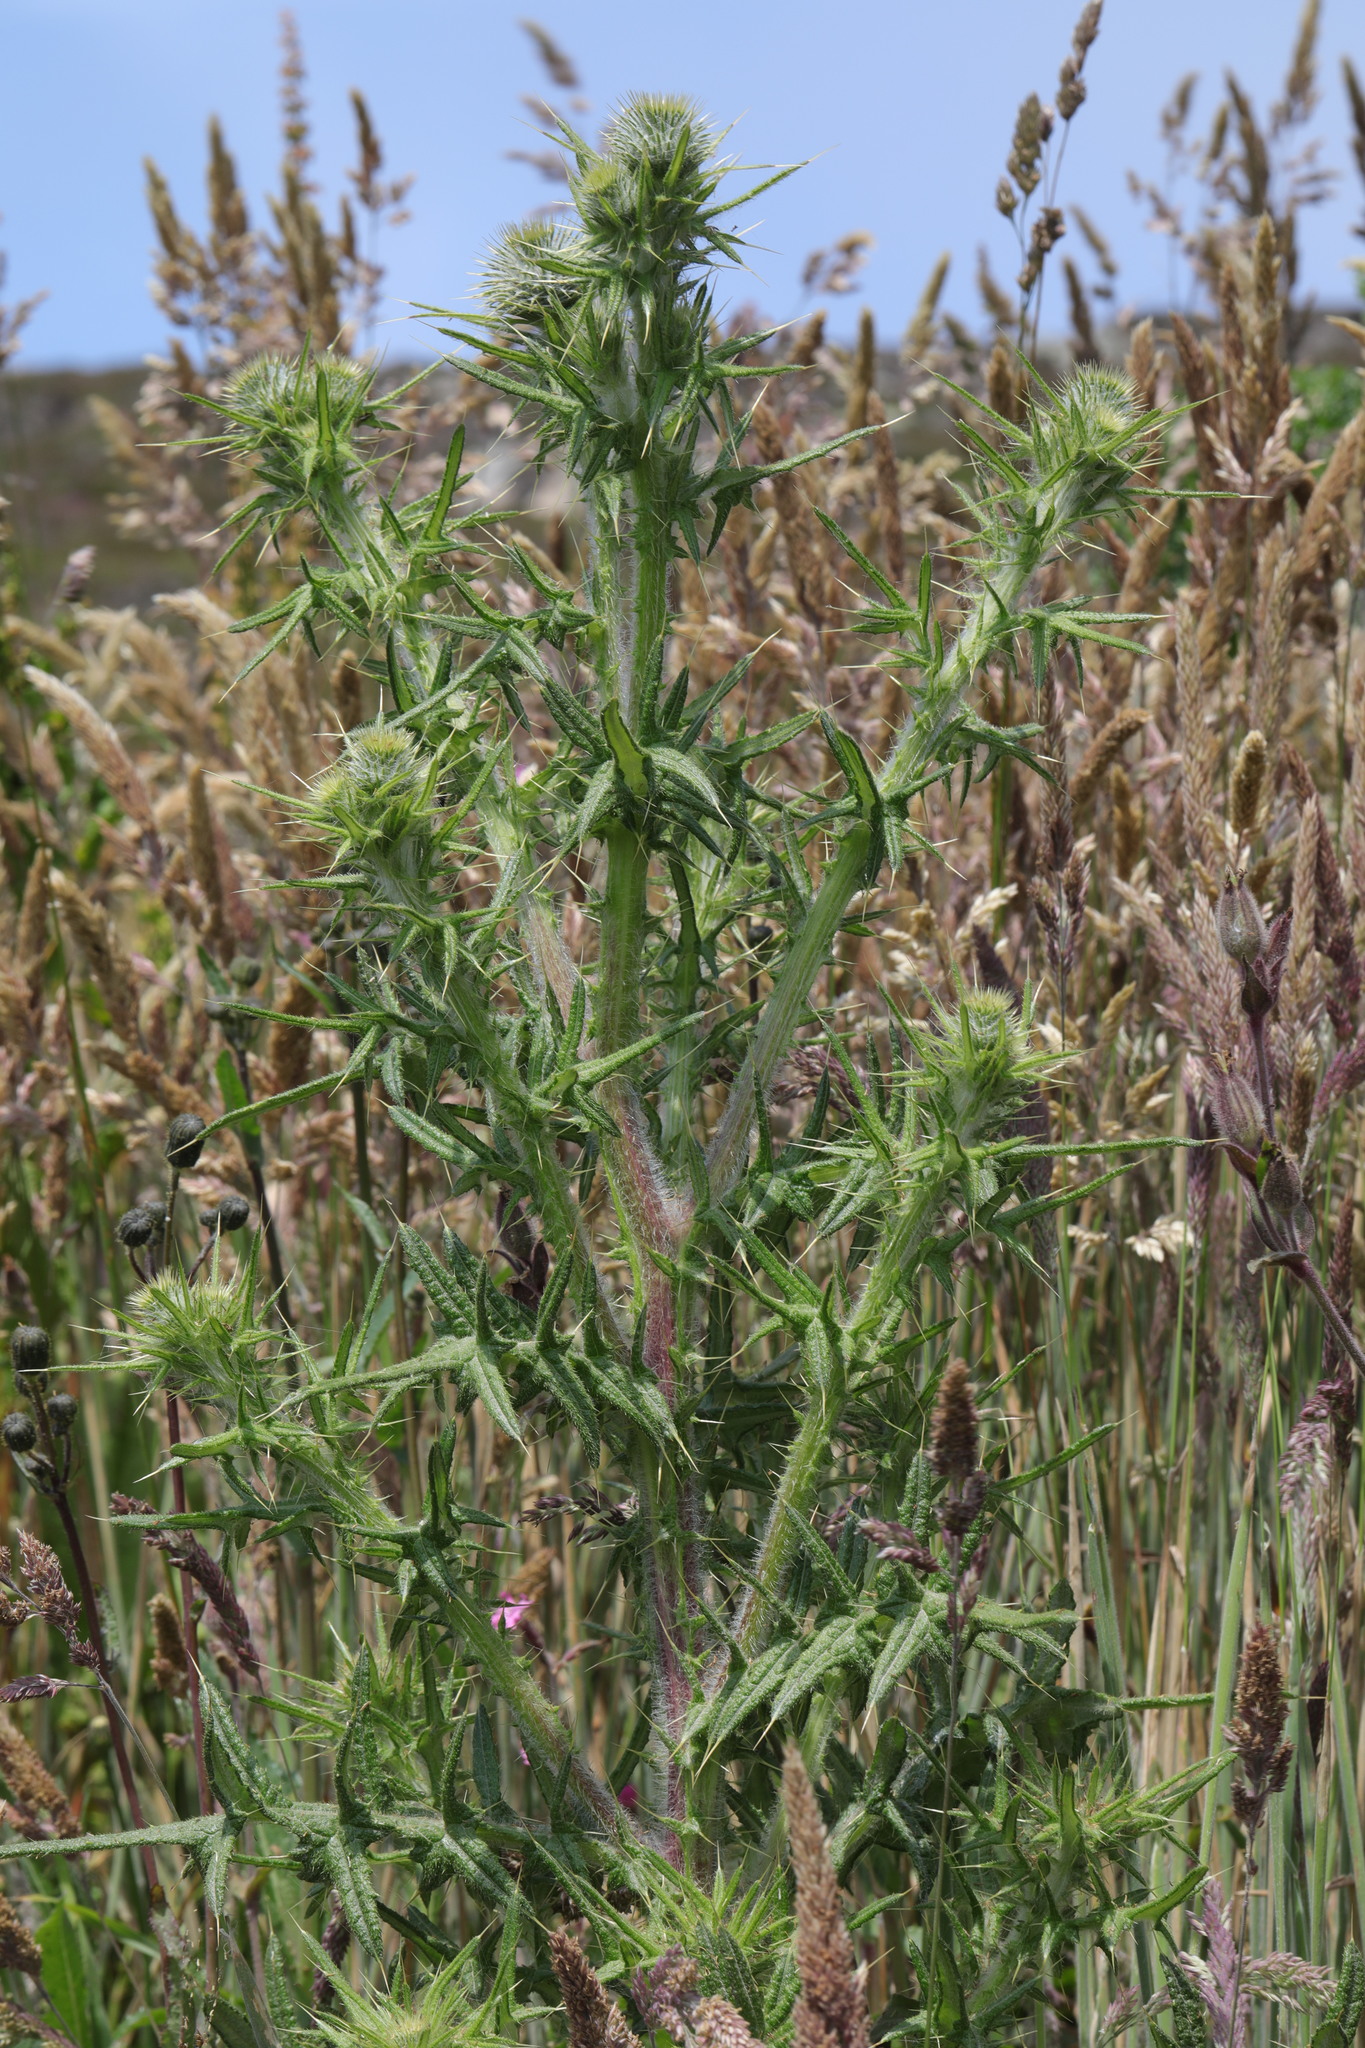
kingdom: Plantae
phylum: Tracheophyta
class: Magnoliopsida
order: Asterales
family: Asteraceae
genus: Cirsium
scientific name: Cirsium vulgare
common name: Bull thistle
